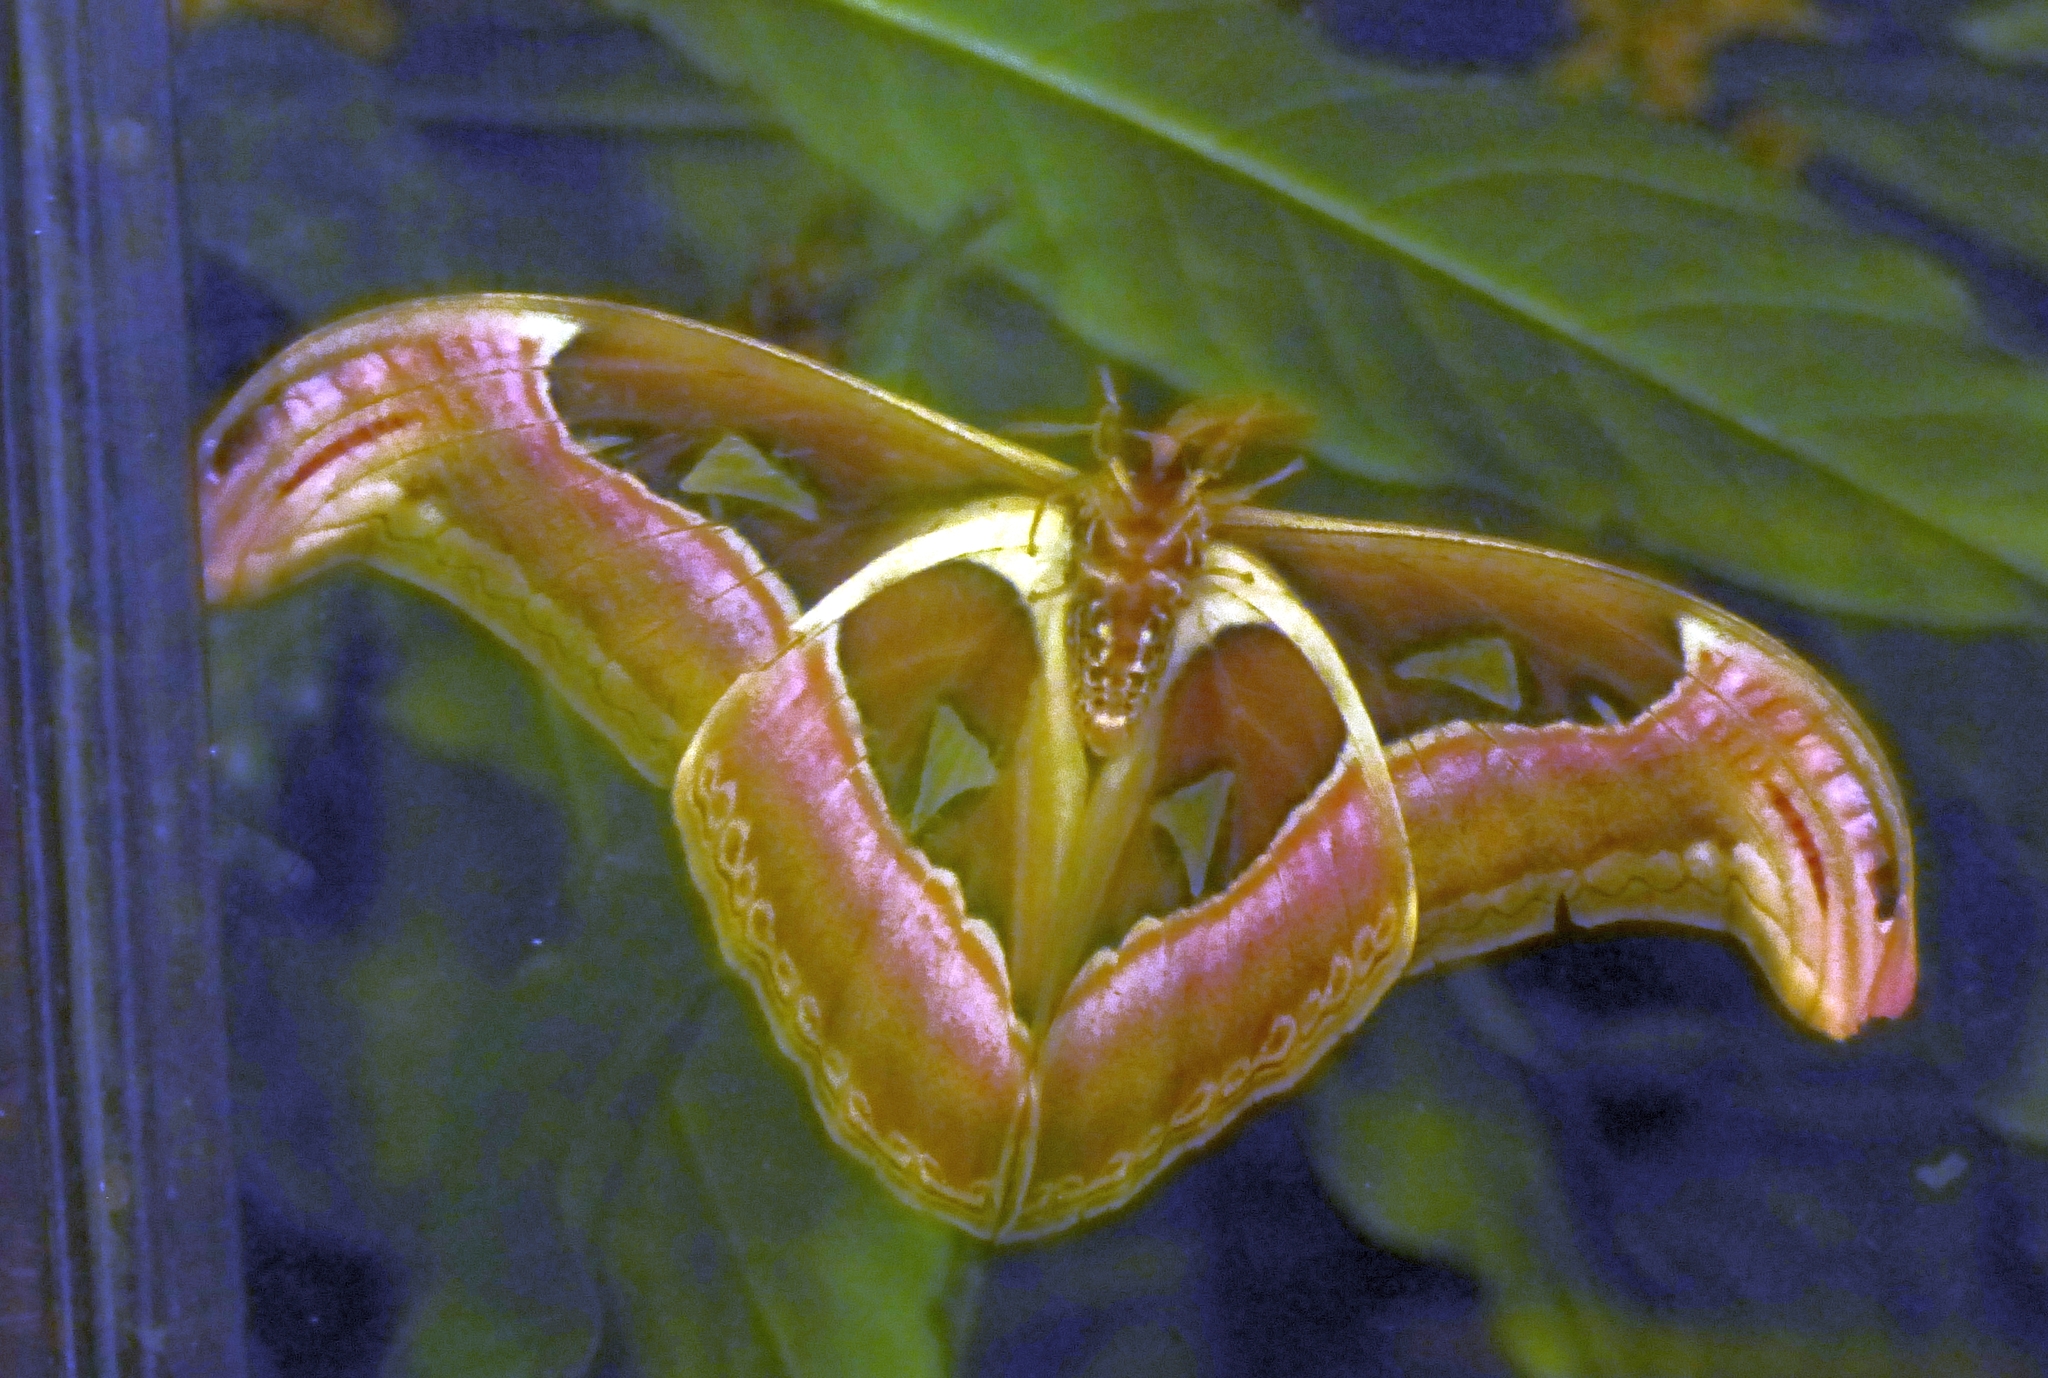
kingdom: Animalia
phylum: Arthropoda
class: Insecta
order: Lepidoptera
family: Saturniidae
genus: Attacus
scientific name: Attacus taprobanis
